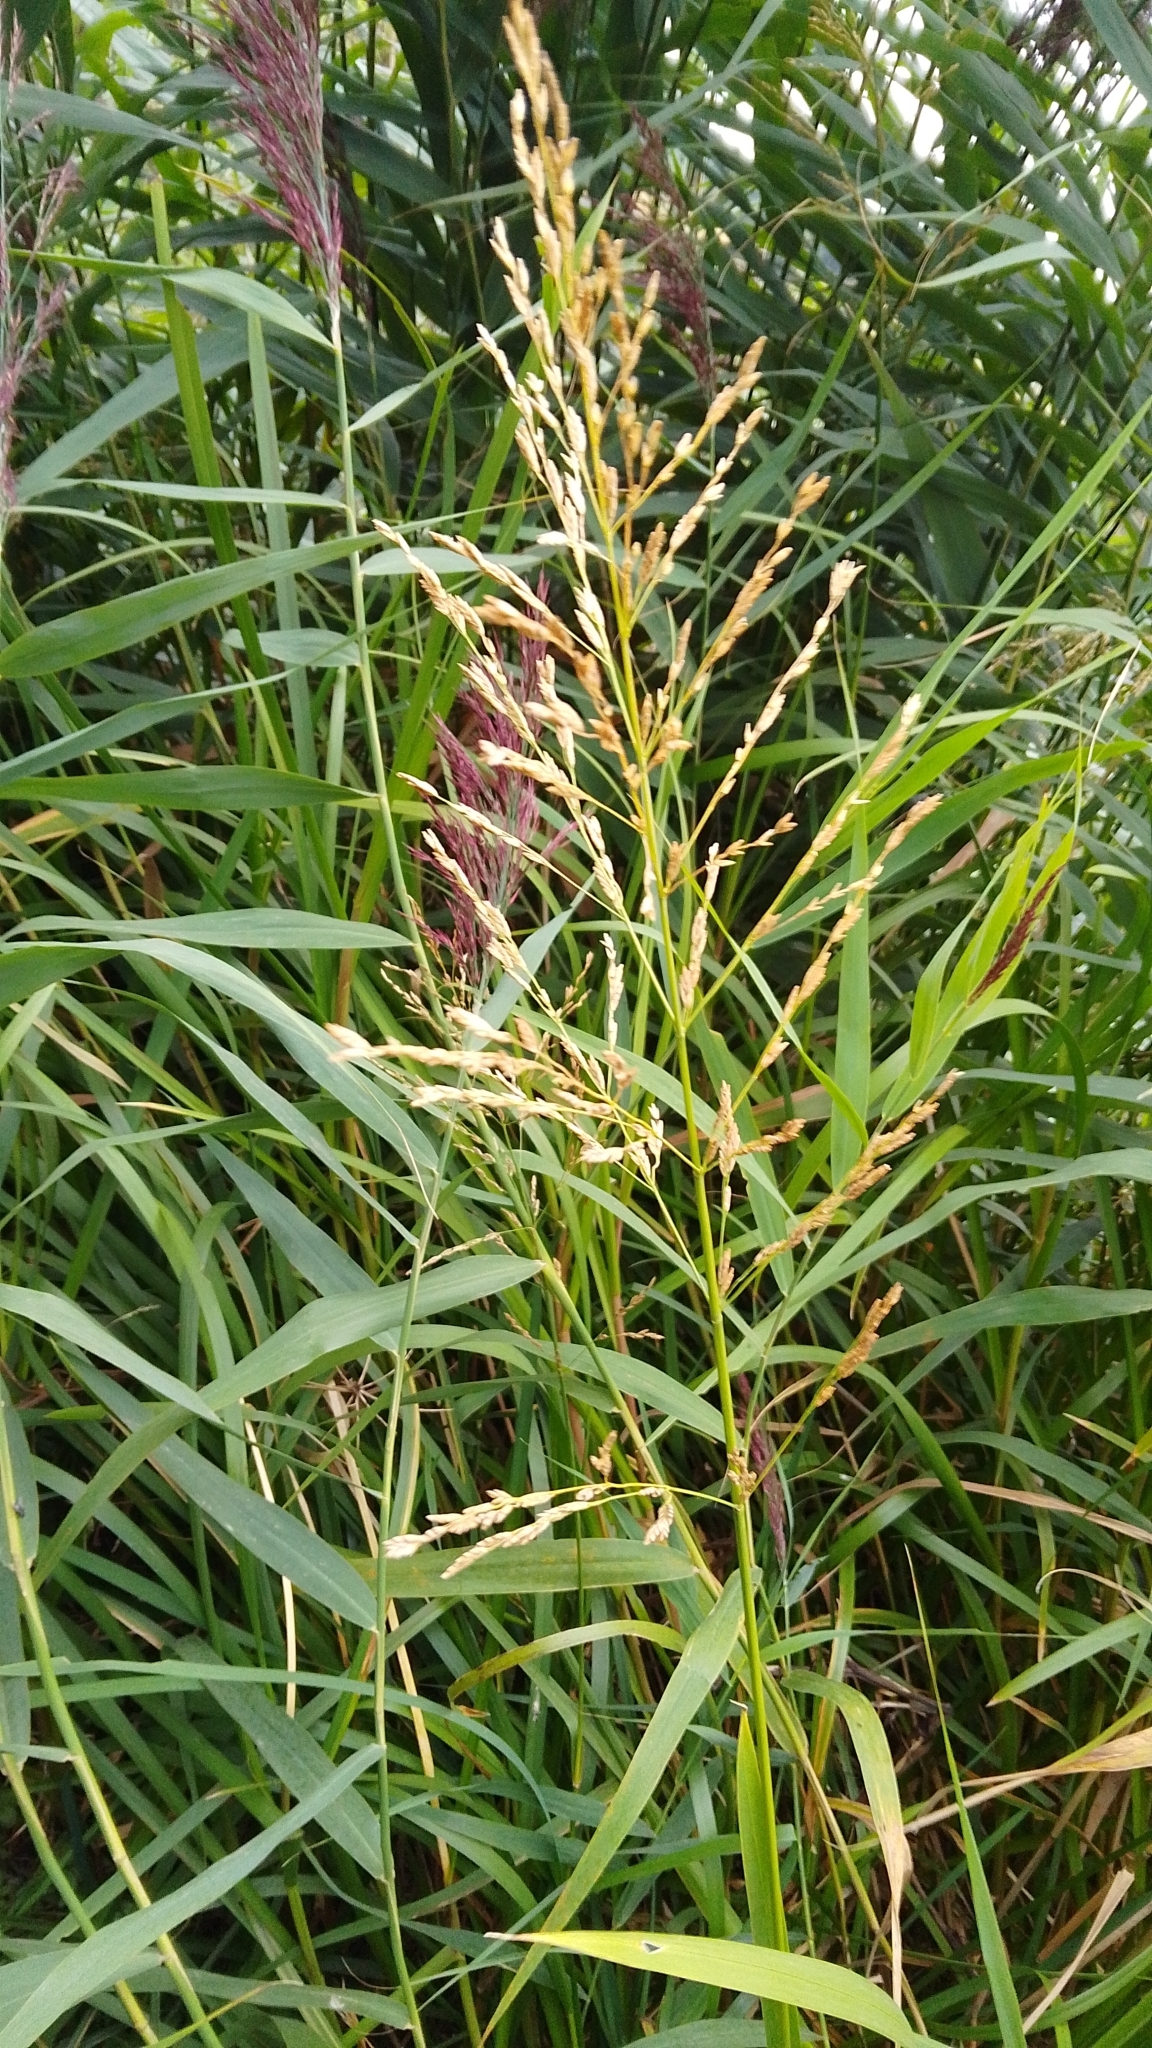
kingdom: Plantae
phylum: Tracheophyta
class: Liliopsida
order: Poales
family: Poaceae
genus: Glyceria
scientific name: Glyceria maxima
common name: Reed mannagrass
